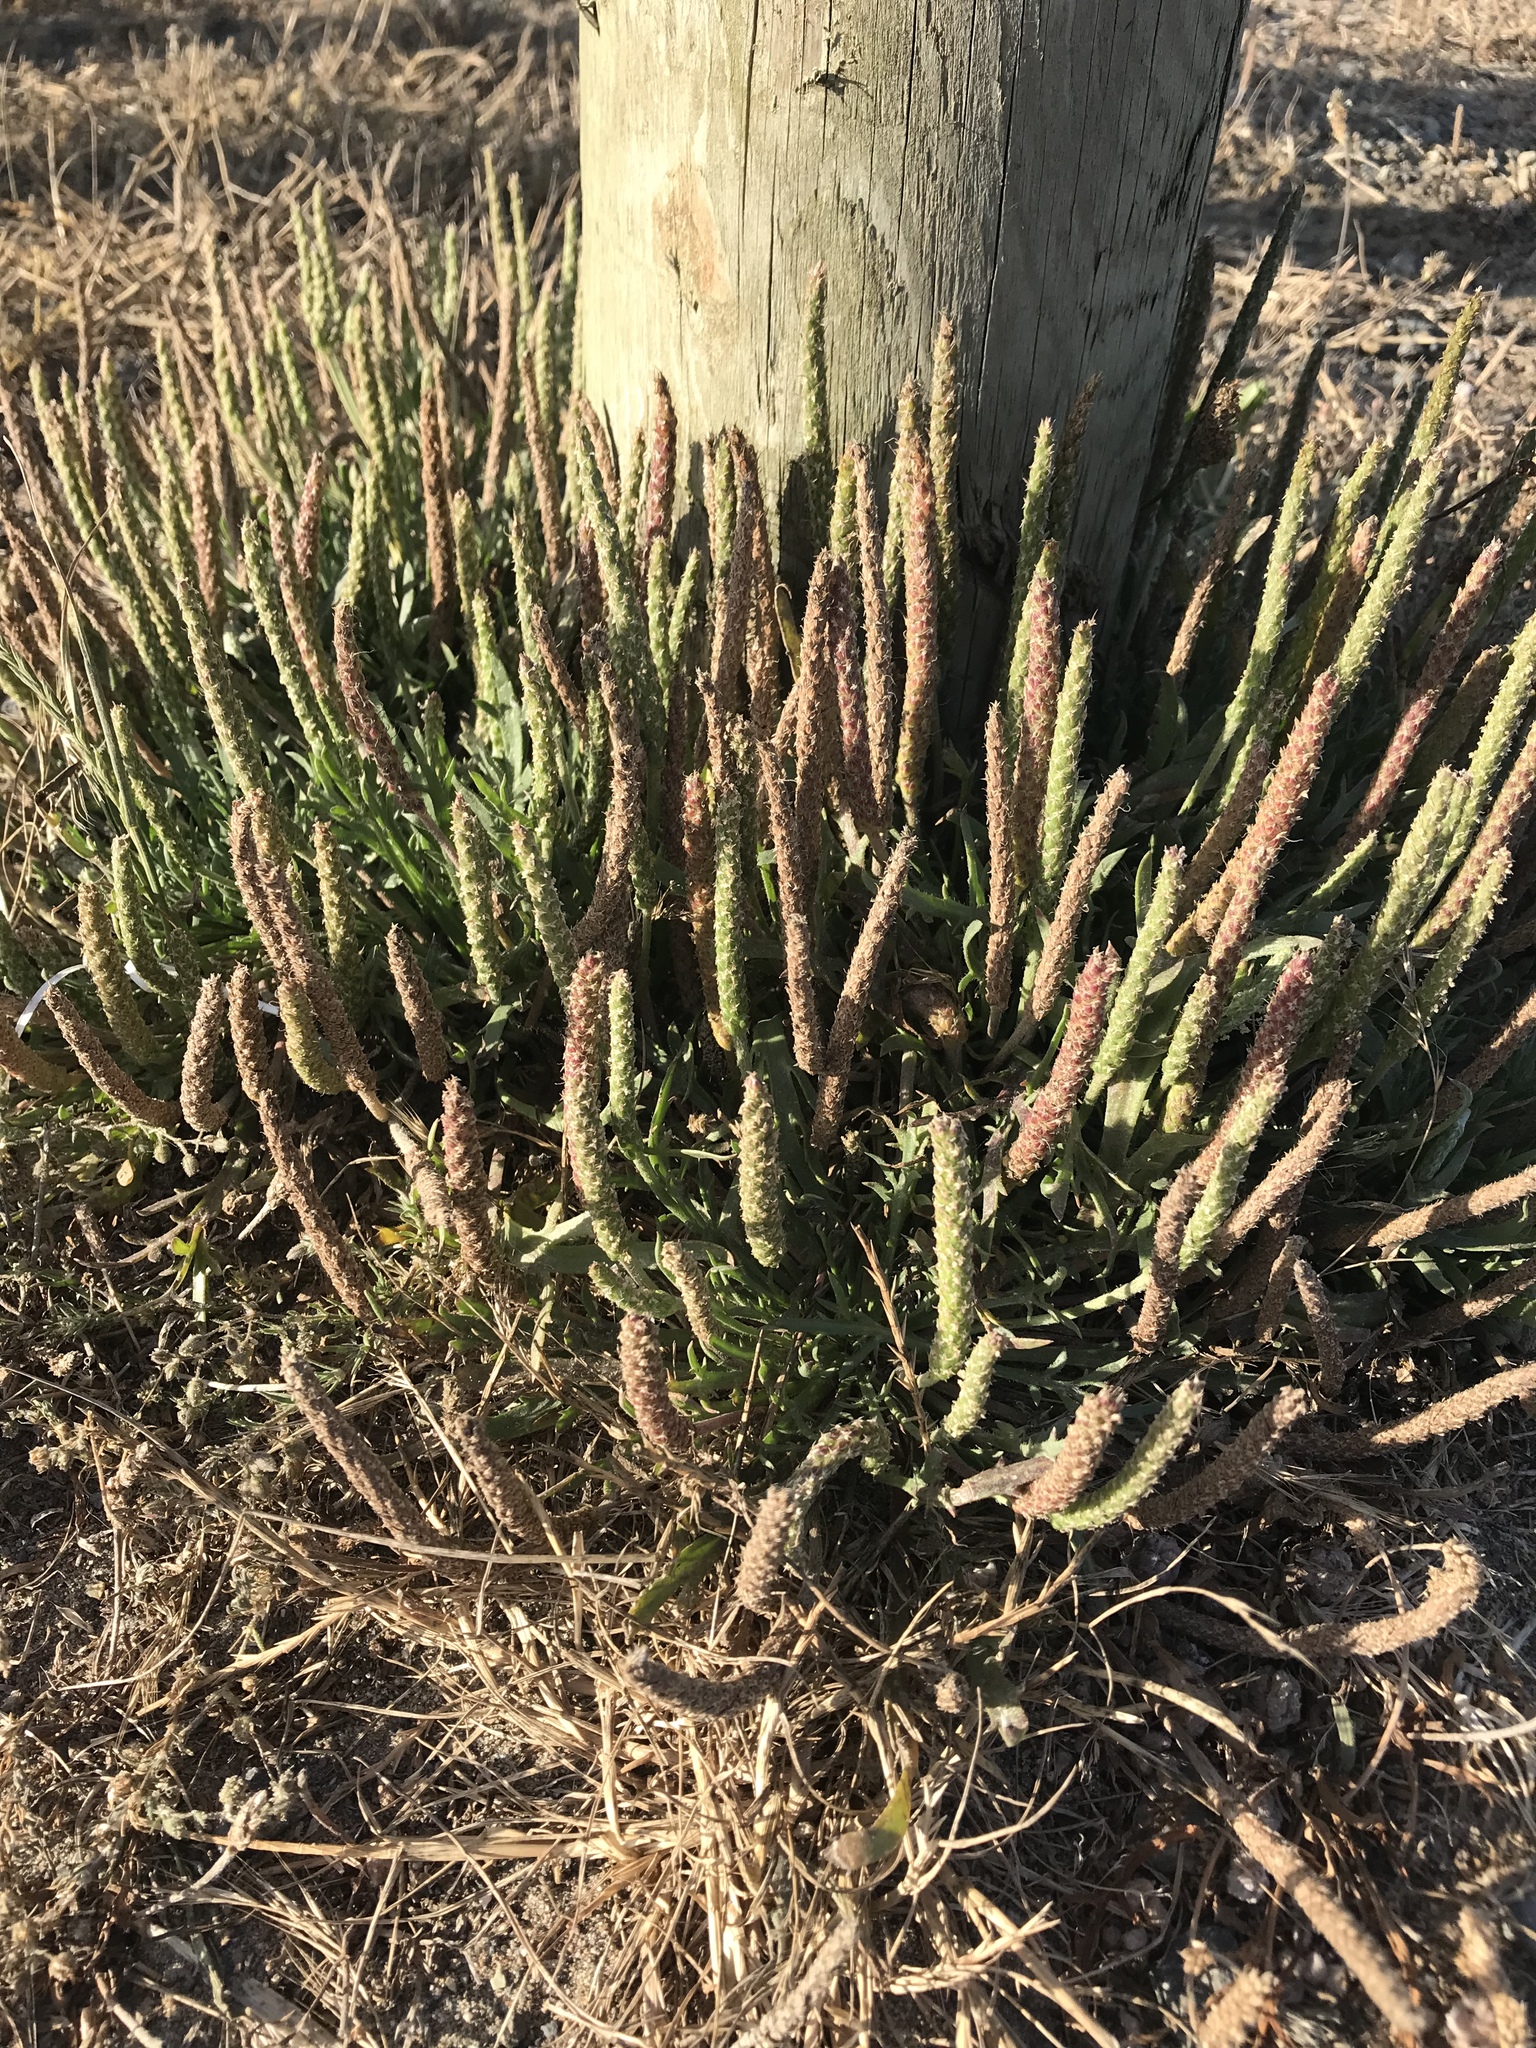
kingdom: Plantae
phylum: Tracheophyta
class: Magnoliopsida
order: Lamiales
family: Plantaginaceae
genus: Plantago
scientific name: Plantago coronopus
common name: Buck's-horn plantain
